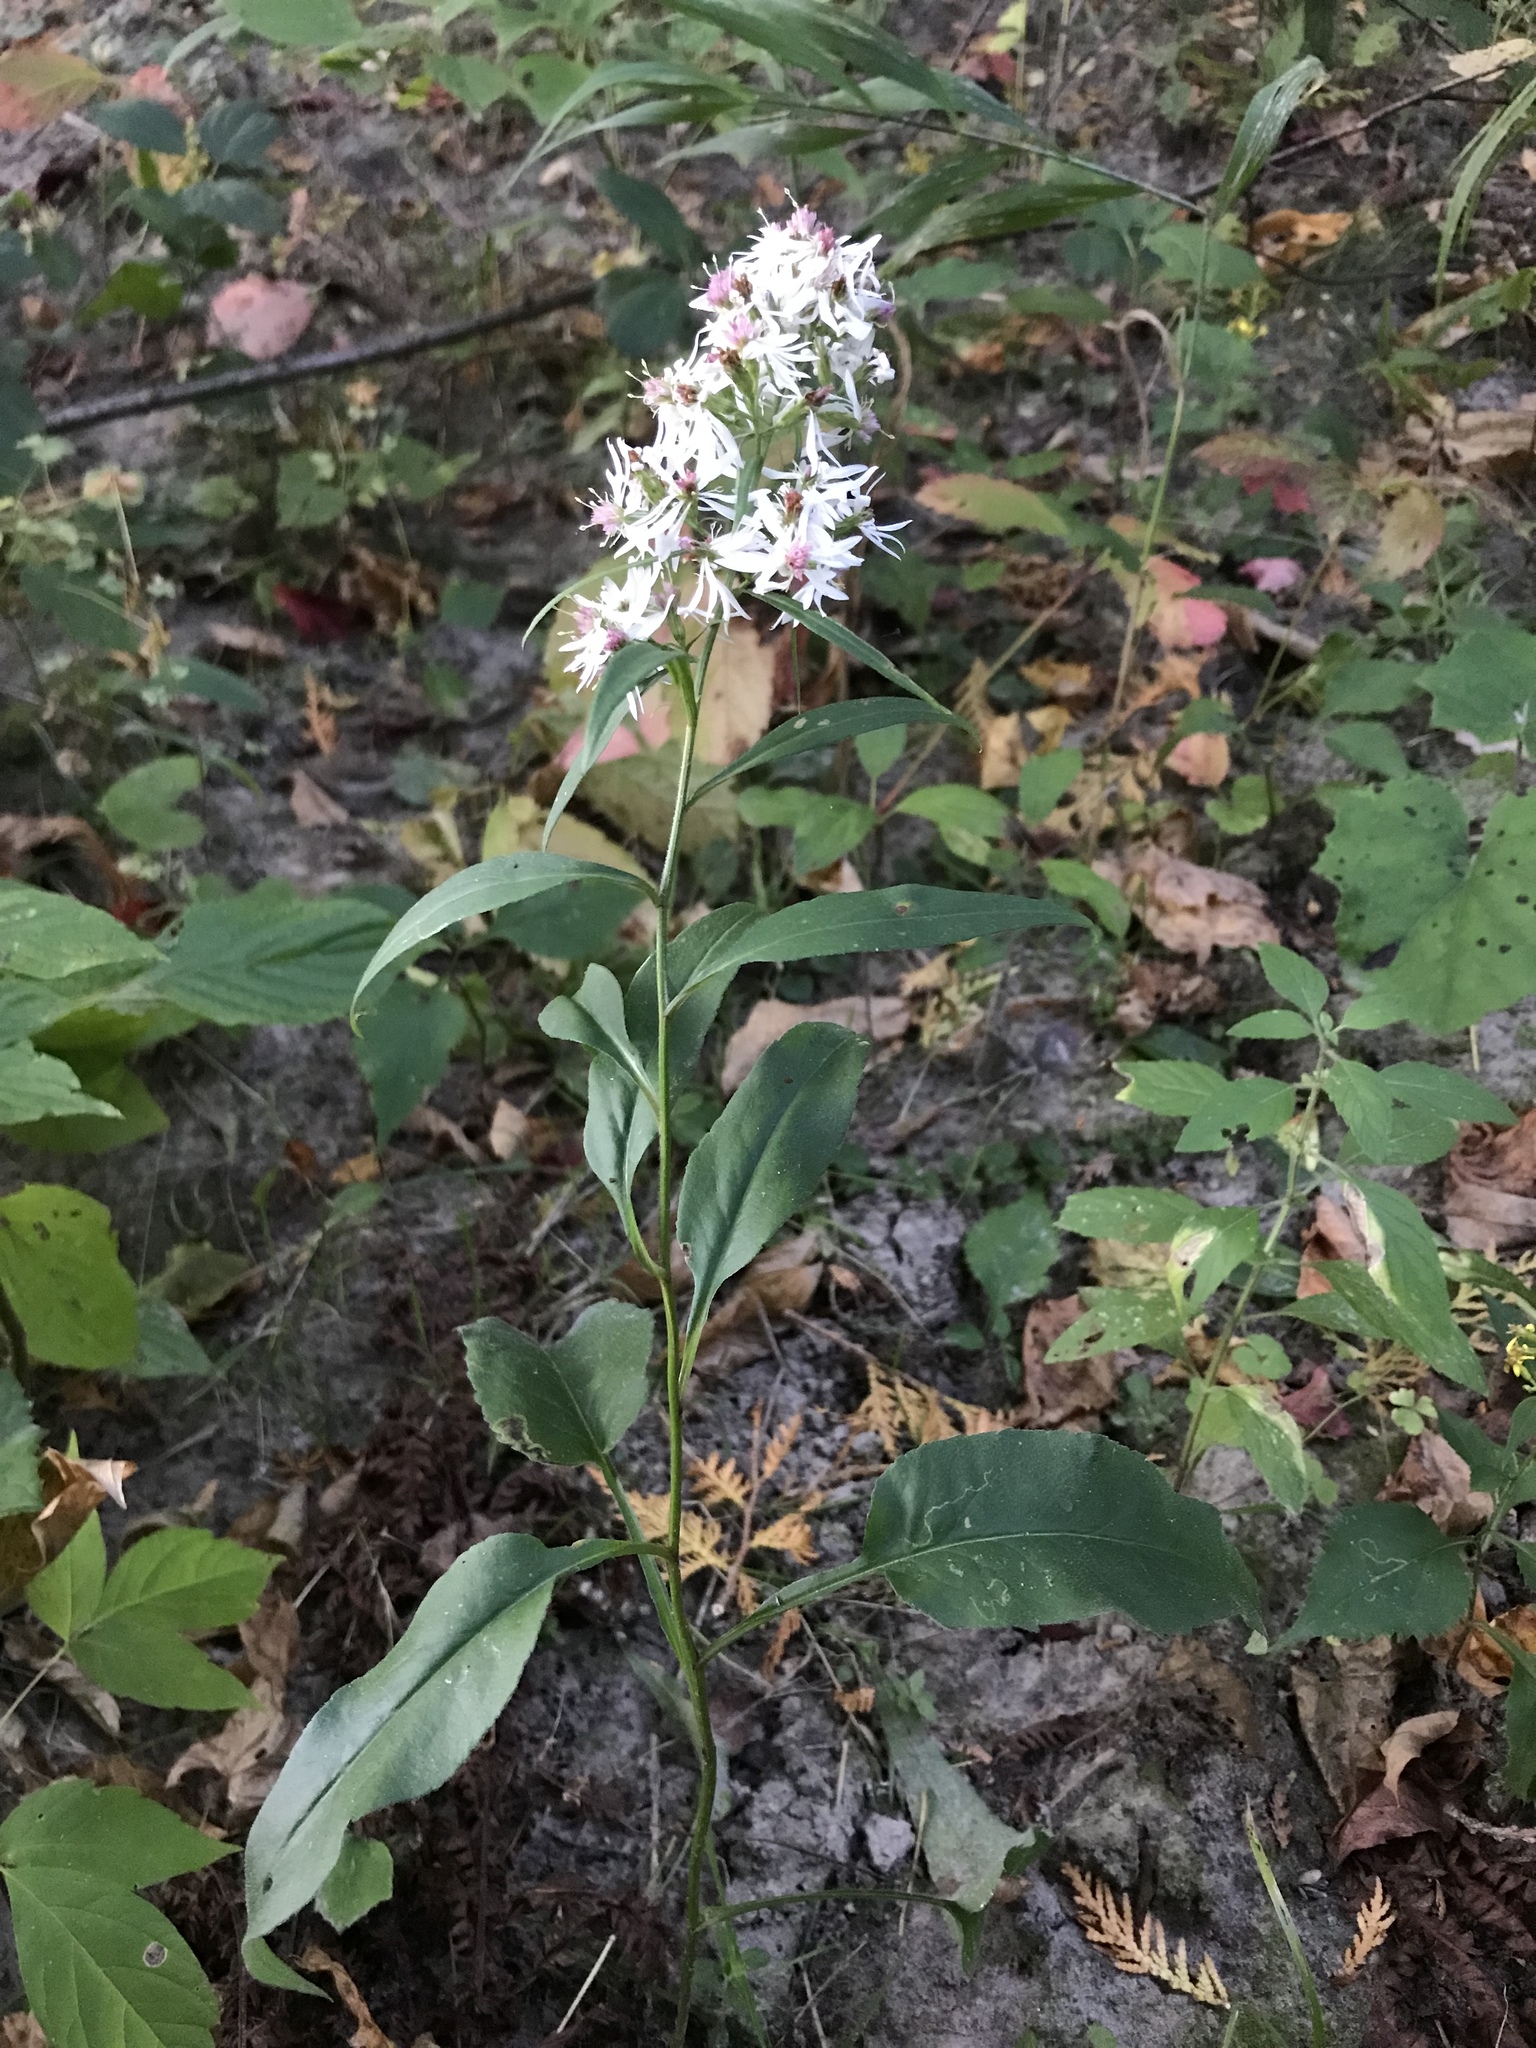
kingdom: Plantae
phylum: Tracheophyta
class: Magnoliopsida
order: Asterales
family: Asteraceae
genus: Symphyotrichum
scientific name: Symphyotrichum urophyllum
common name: Arrow-leaved aster
